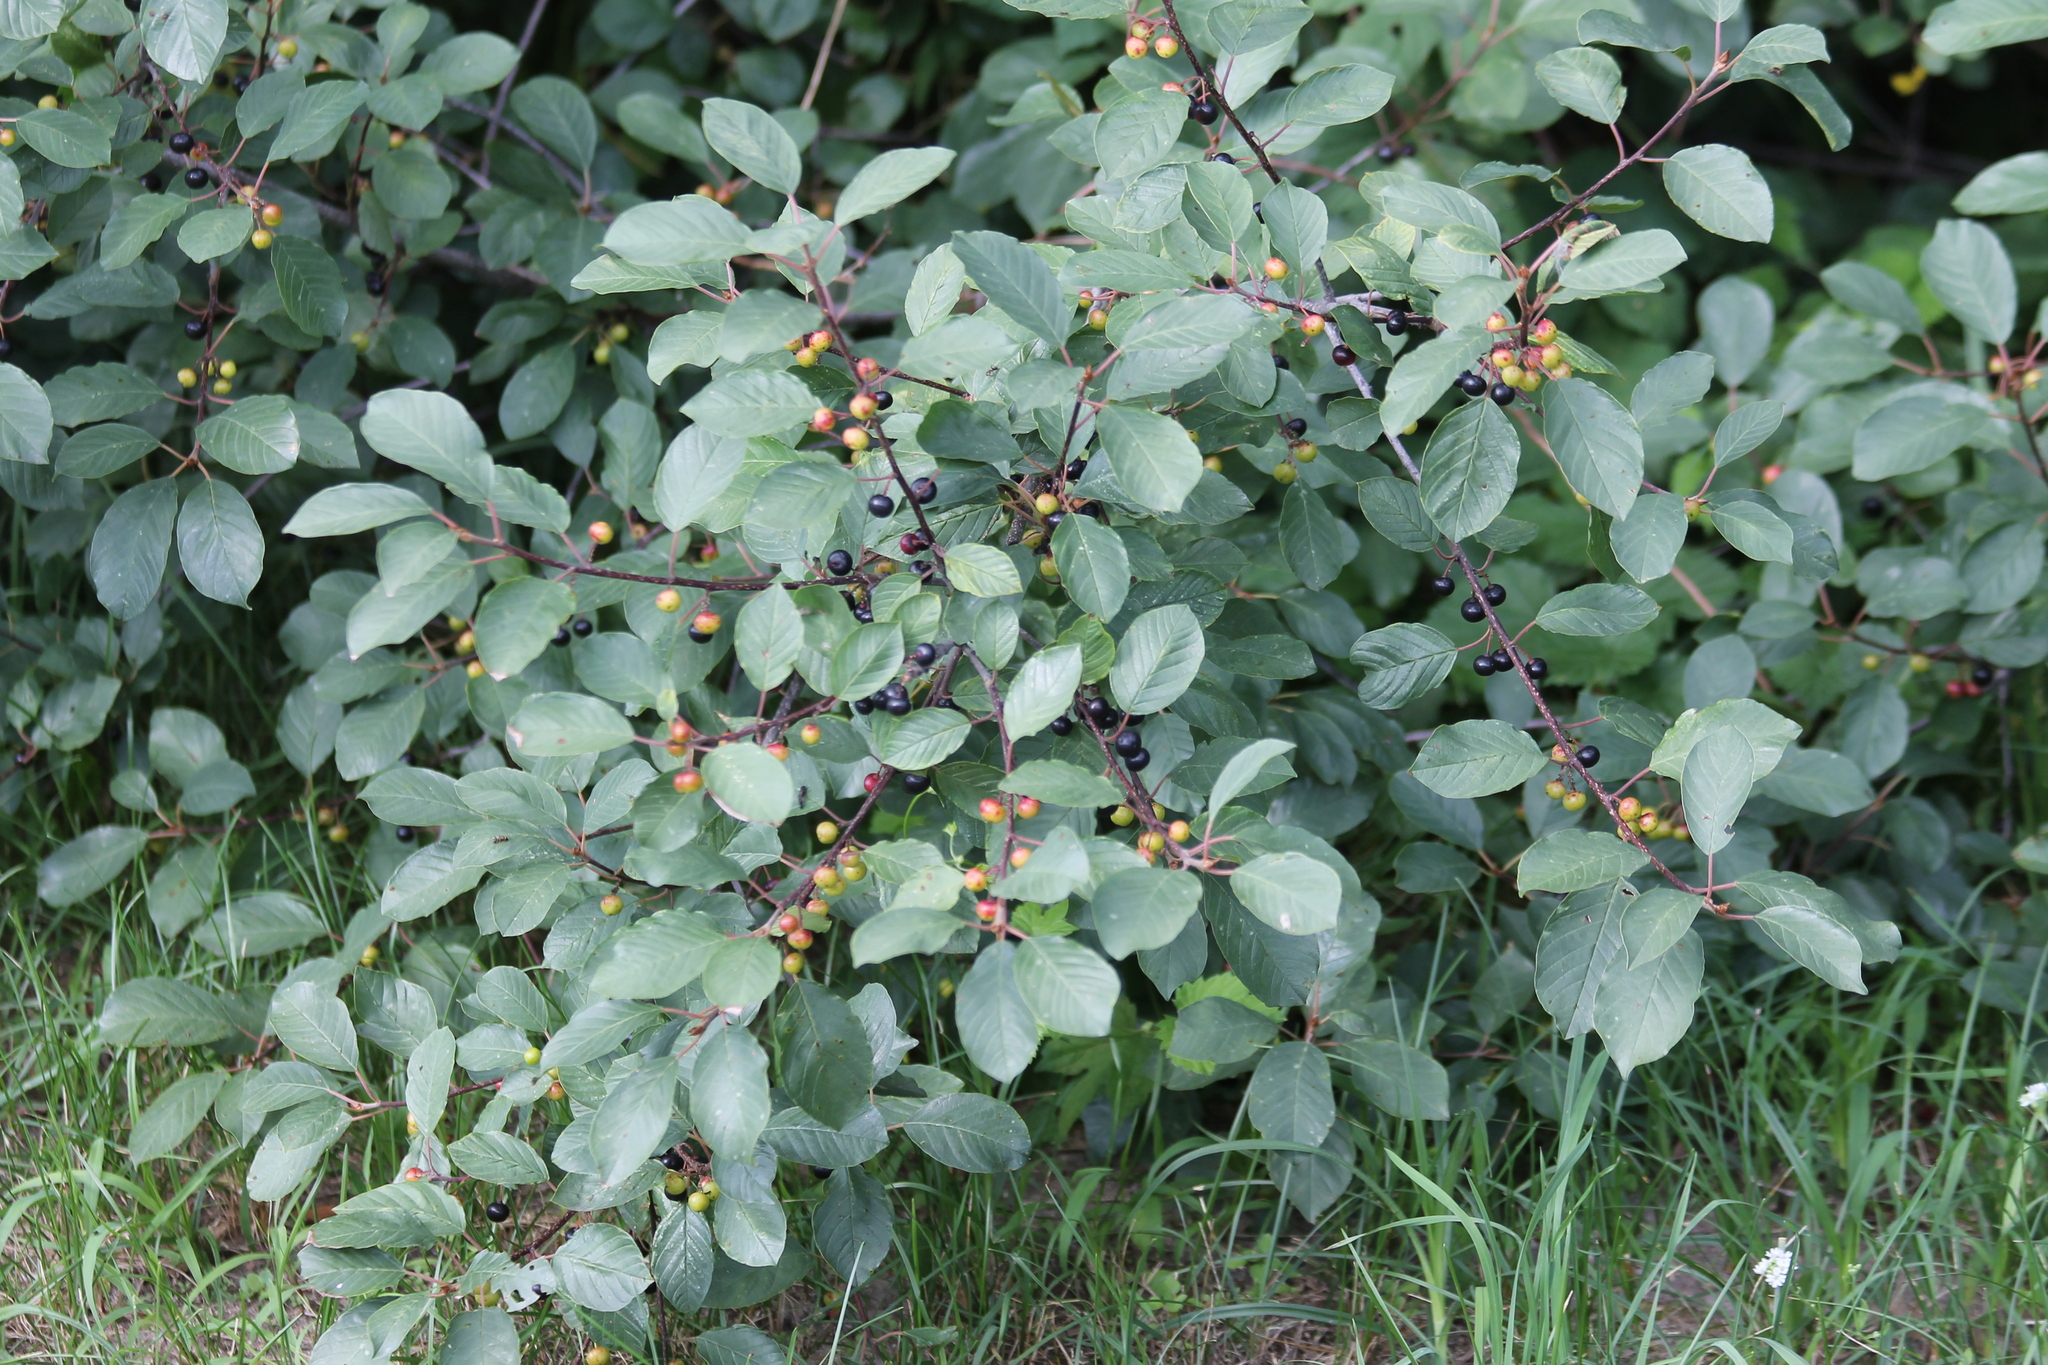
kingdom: Plantae
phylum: Tracheophyta
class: Magnoliopsida
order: Rosales
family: Rhamnaceae
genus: Frangula
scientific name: Frangula alnus
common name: Alder buckthorn
